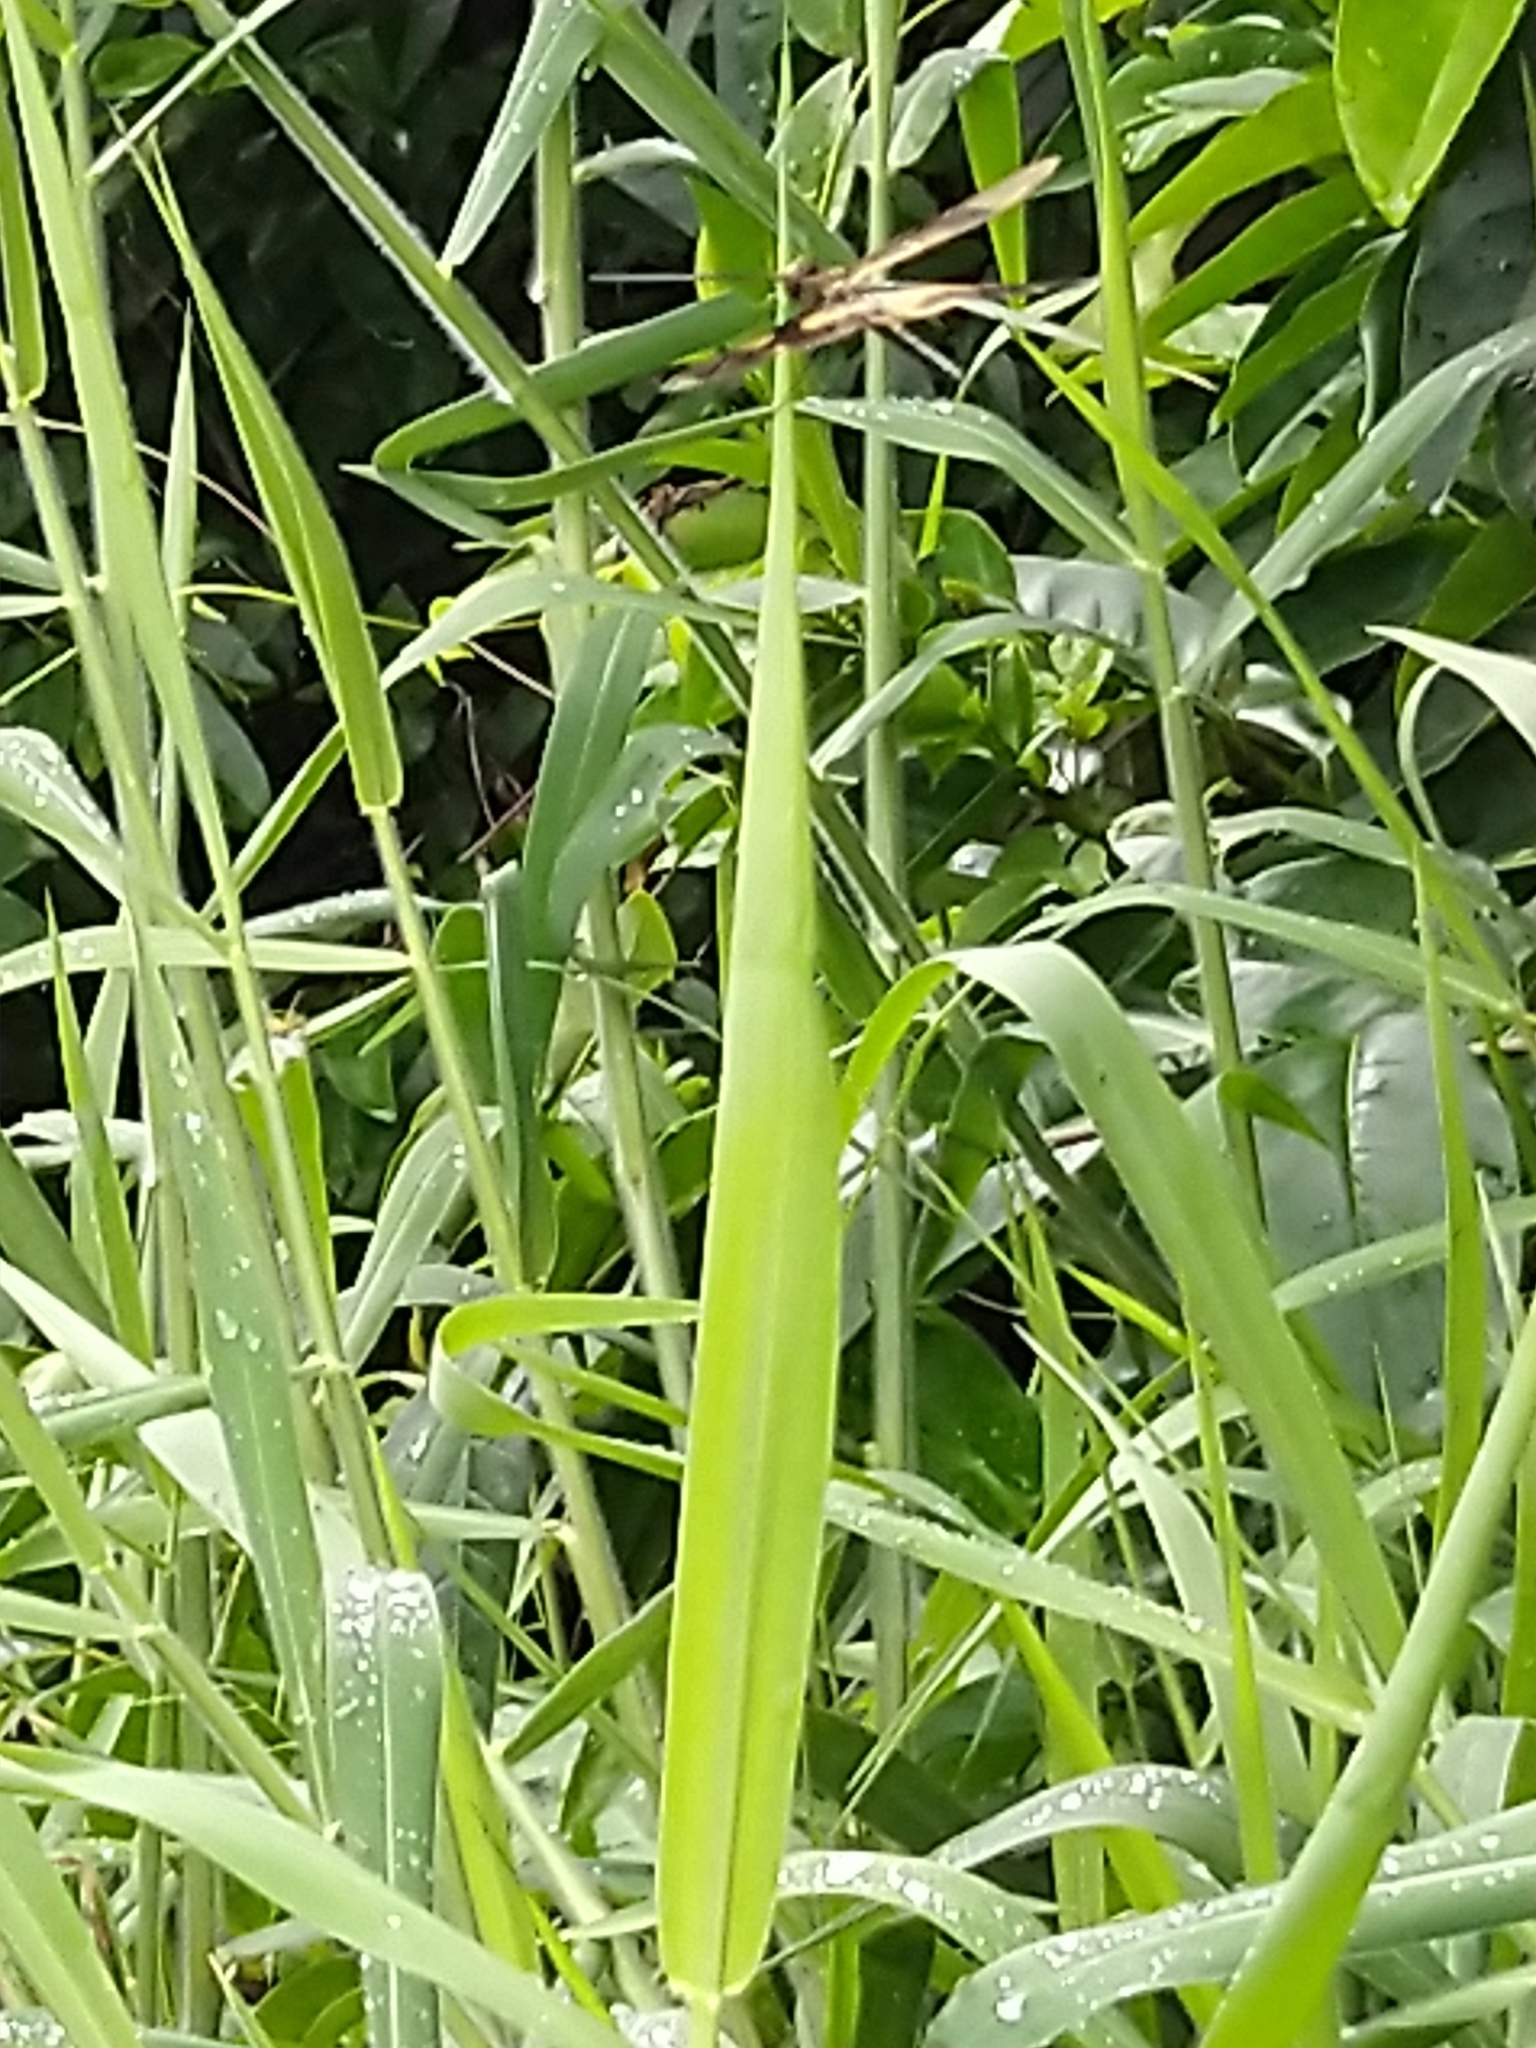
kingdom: Animalia
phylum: Arthropoda
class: Insecta
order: Odonata
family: Libellulidae
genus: Rhyothemis
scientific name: Rhyothemis variegata
